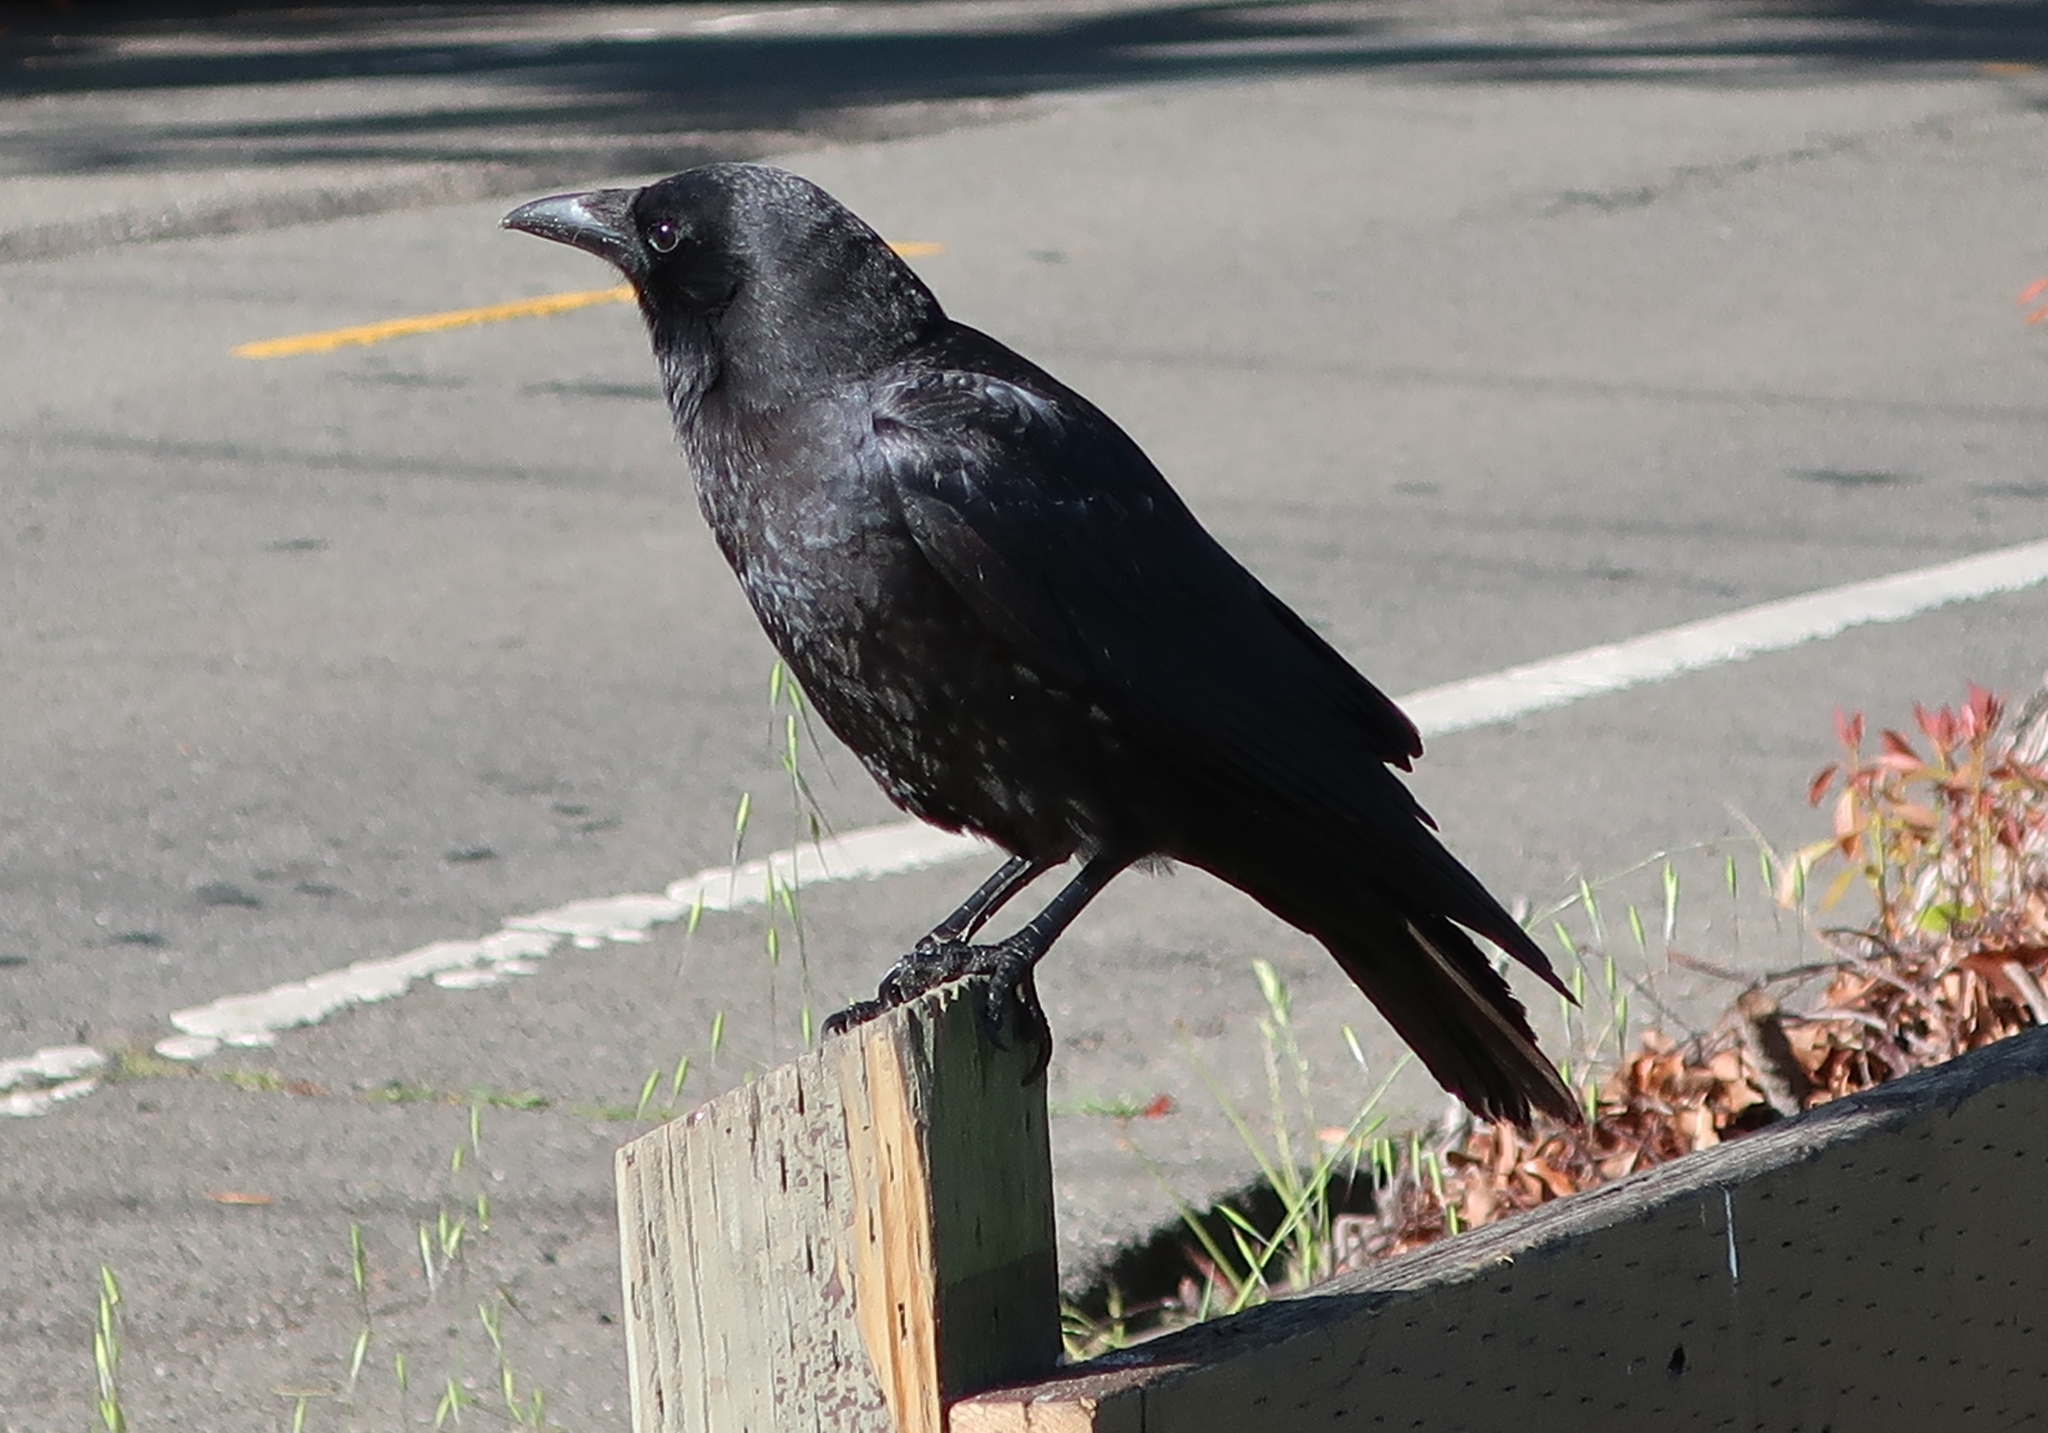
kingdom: Animalia
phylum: Chordata
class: Aves
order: Passeriformes
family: Corvidae
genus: Corvus
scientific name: Corvus brachyrhynchos
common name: American crow
